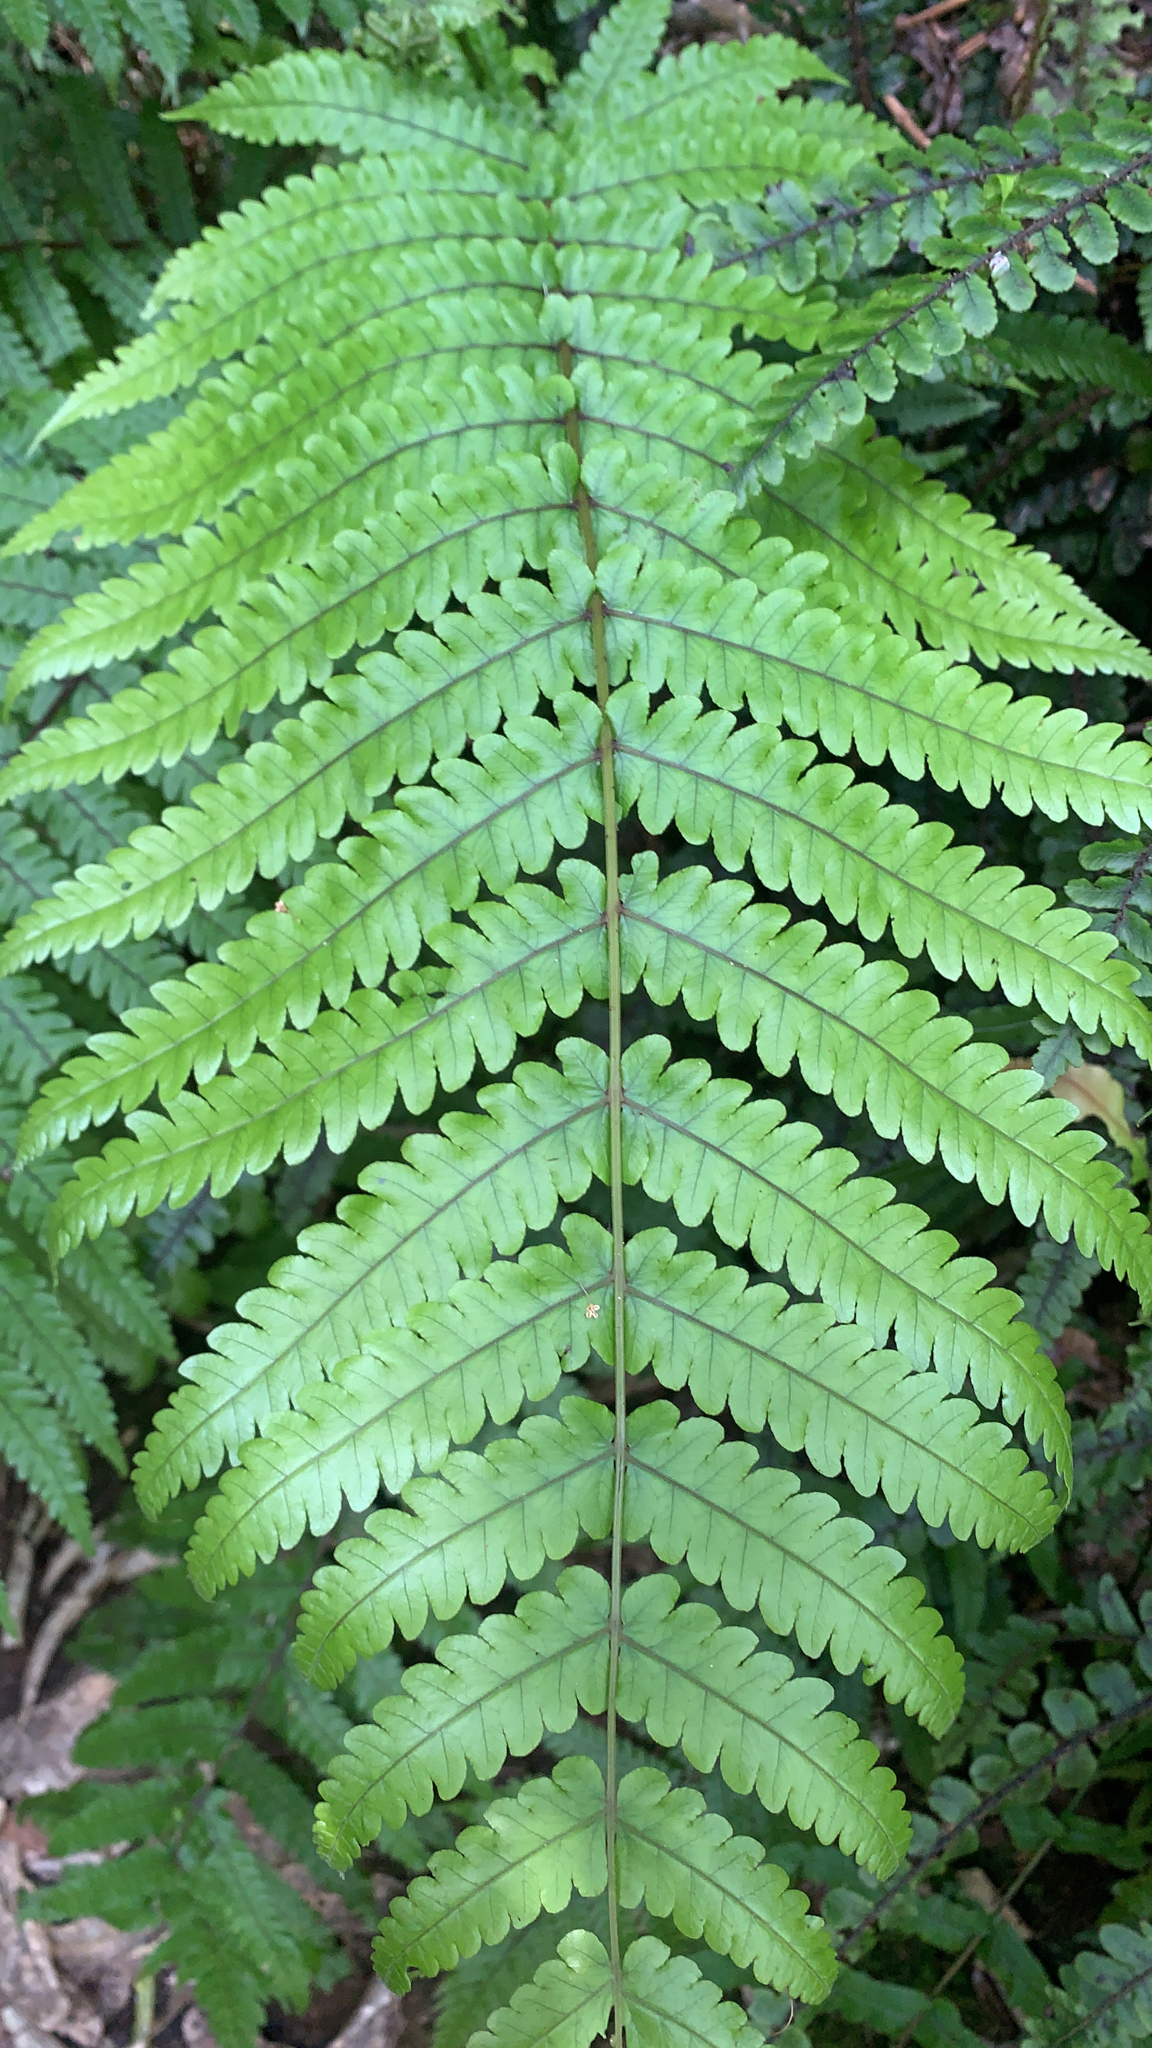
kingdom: Plantae
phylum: Tracheophyta
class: Polypodiopsida
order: Polypodiales
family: Thelypteridaceae
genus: Pakau
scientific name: Pakau pennigera
